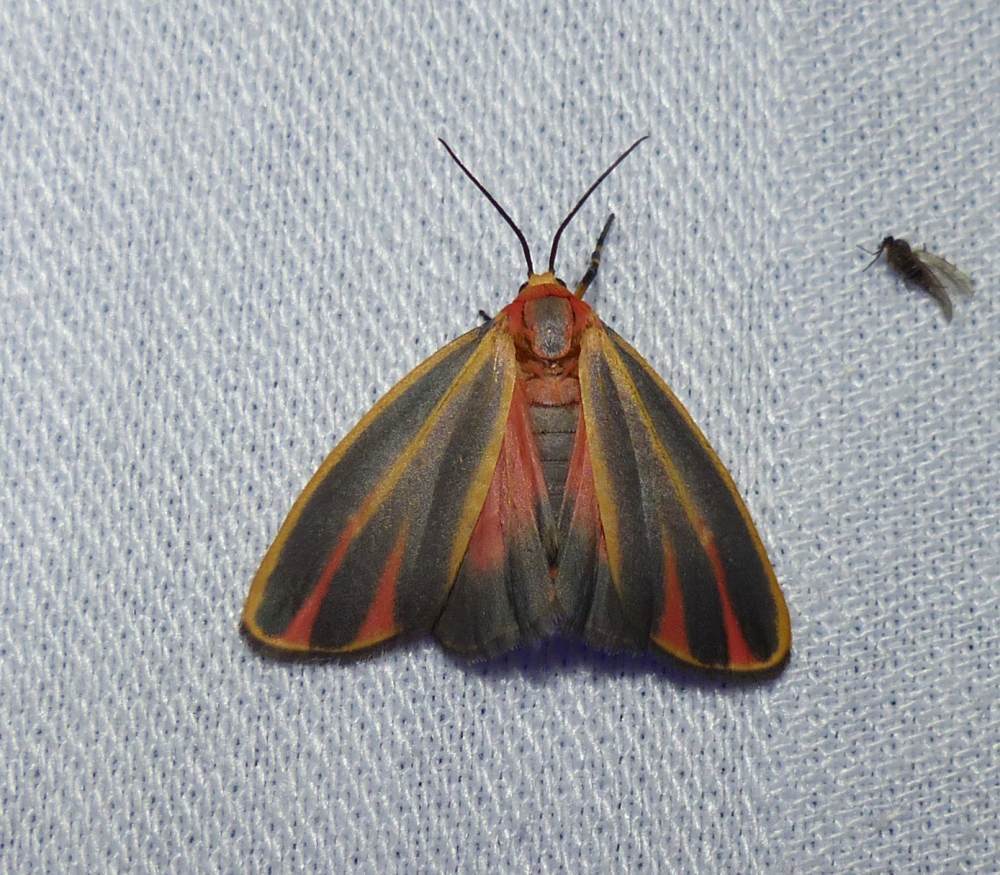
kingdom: Animalia
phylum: Arthropoda
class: Insecta
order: Lepidoptera
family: Erebidae
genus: Hypoprepia
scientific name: Hypoprepia fucosa
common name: Painted lichen moth
